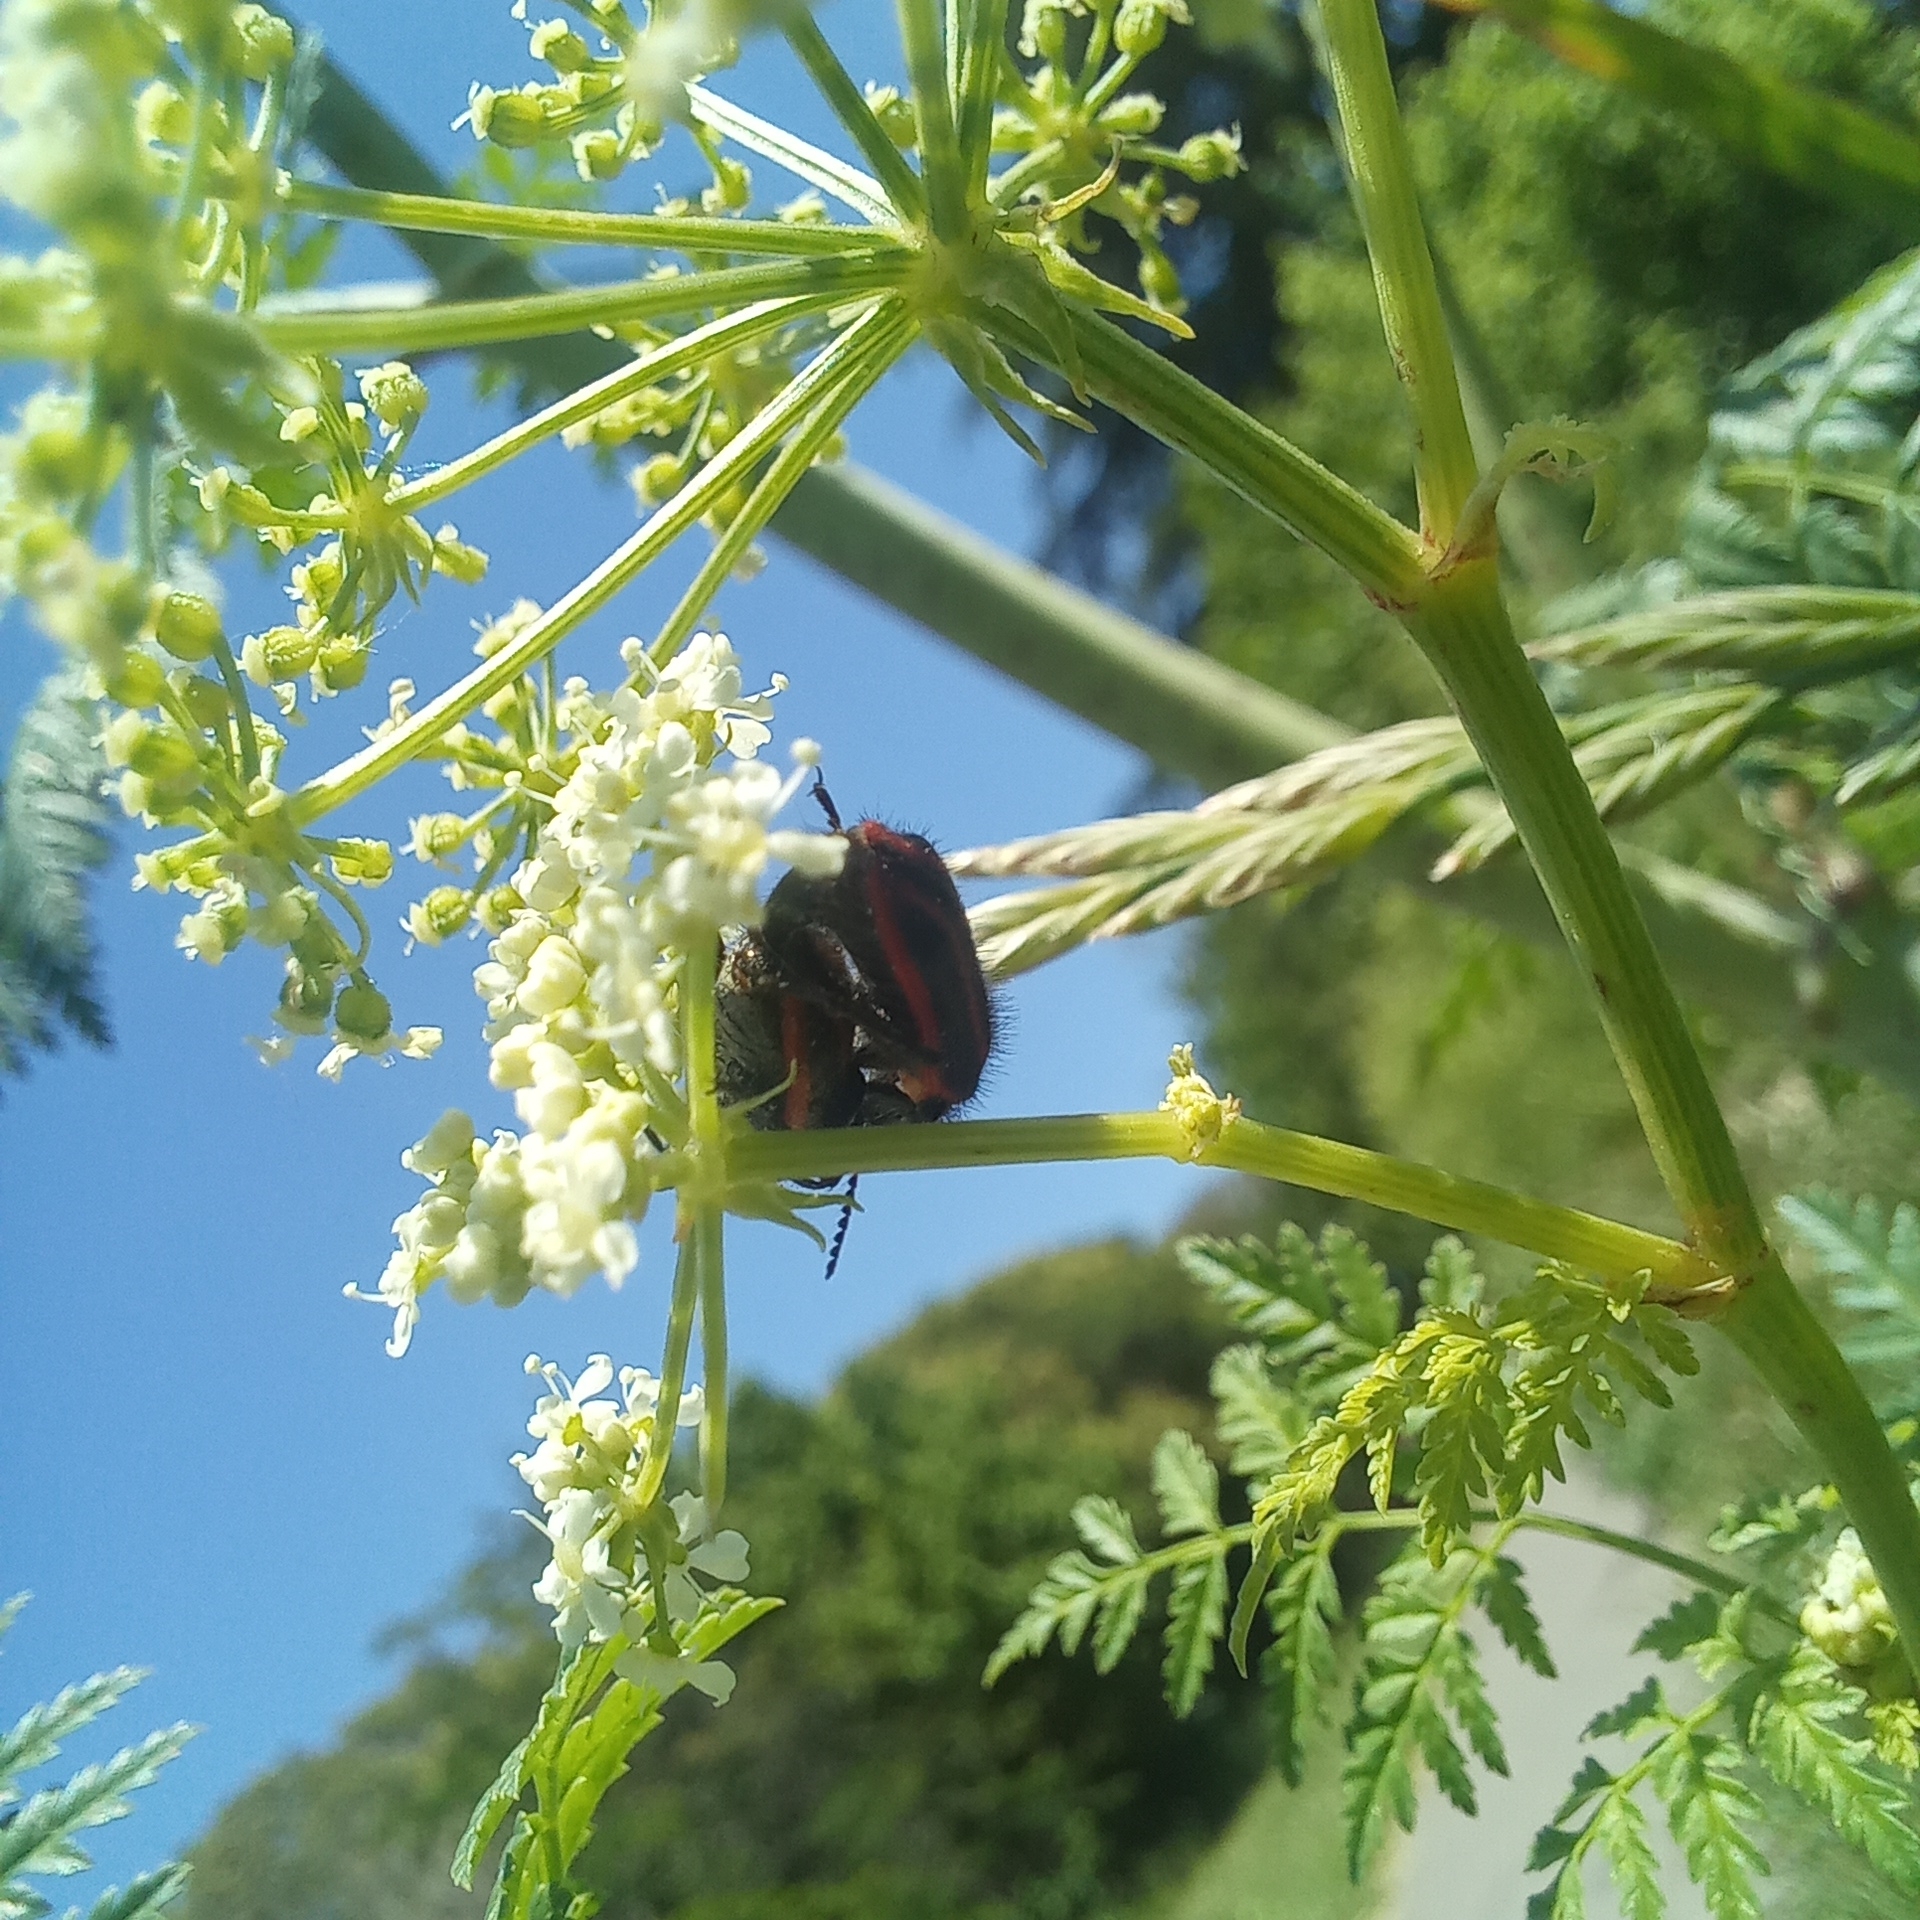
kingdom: Animalia
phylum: Arthropoda
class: Insecta
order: Coleoptera
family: Melyridae
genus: Astylus
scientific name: Astylus
